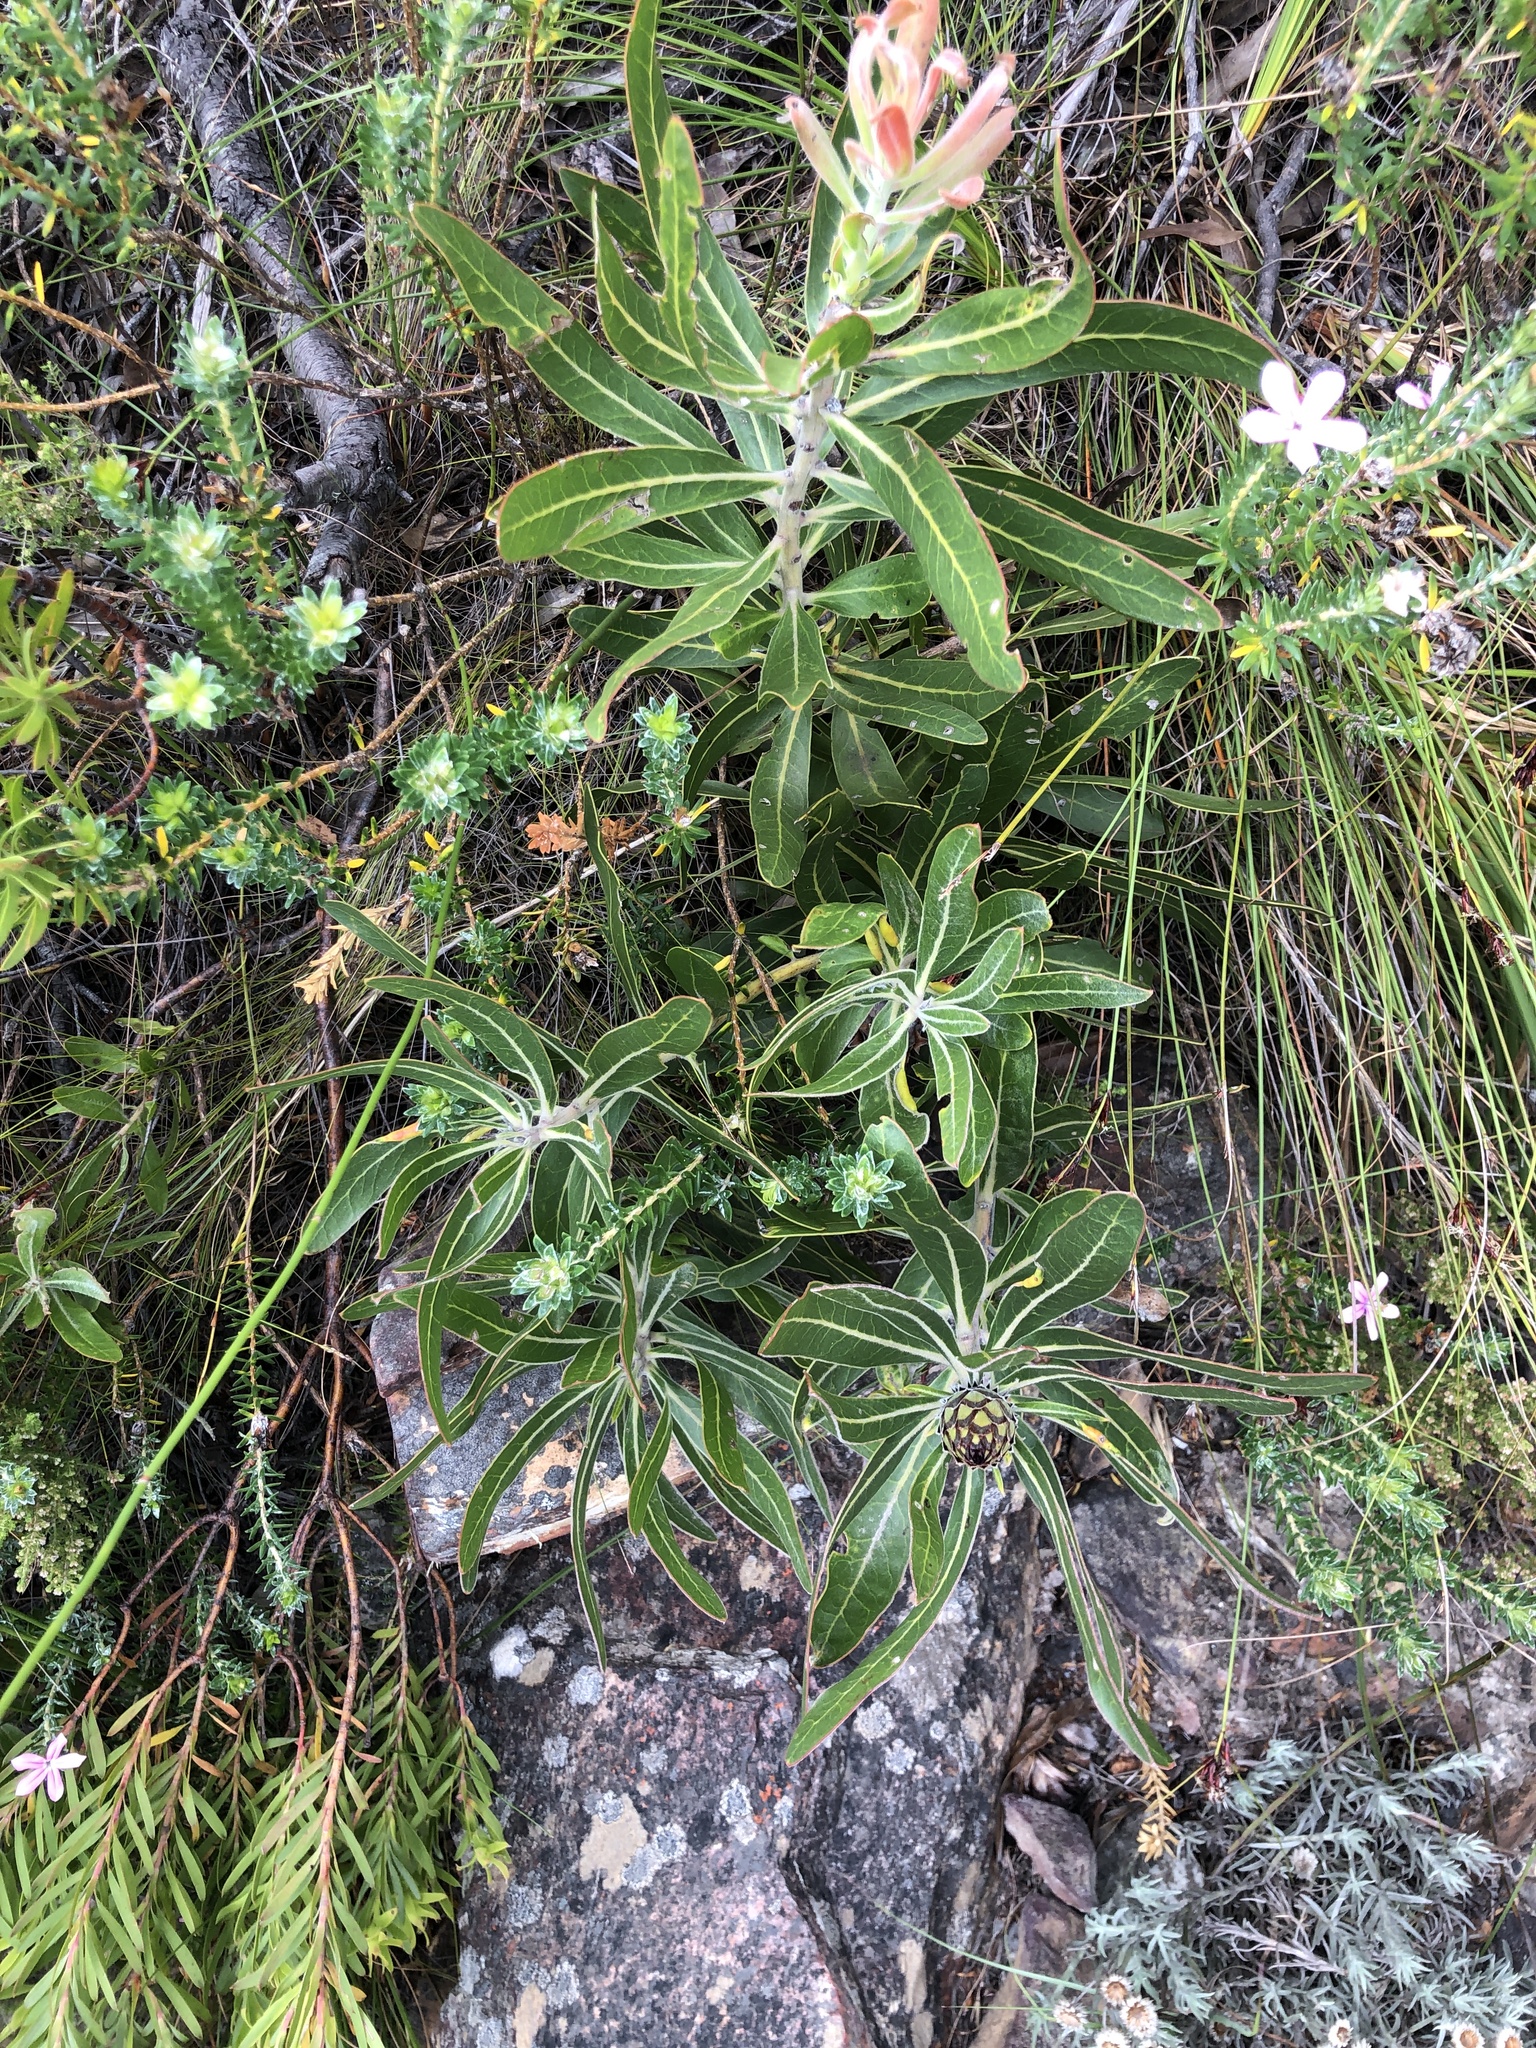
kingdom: Plantae
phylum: Tracheophyta
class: Magnoliopsida
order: Proteales
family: Proteaceae
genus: Protea
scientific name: Protea neriifolia
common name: Blue sugarbush
